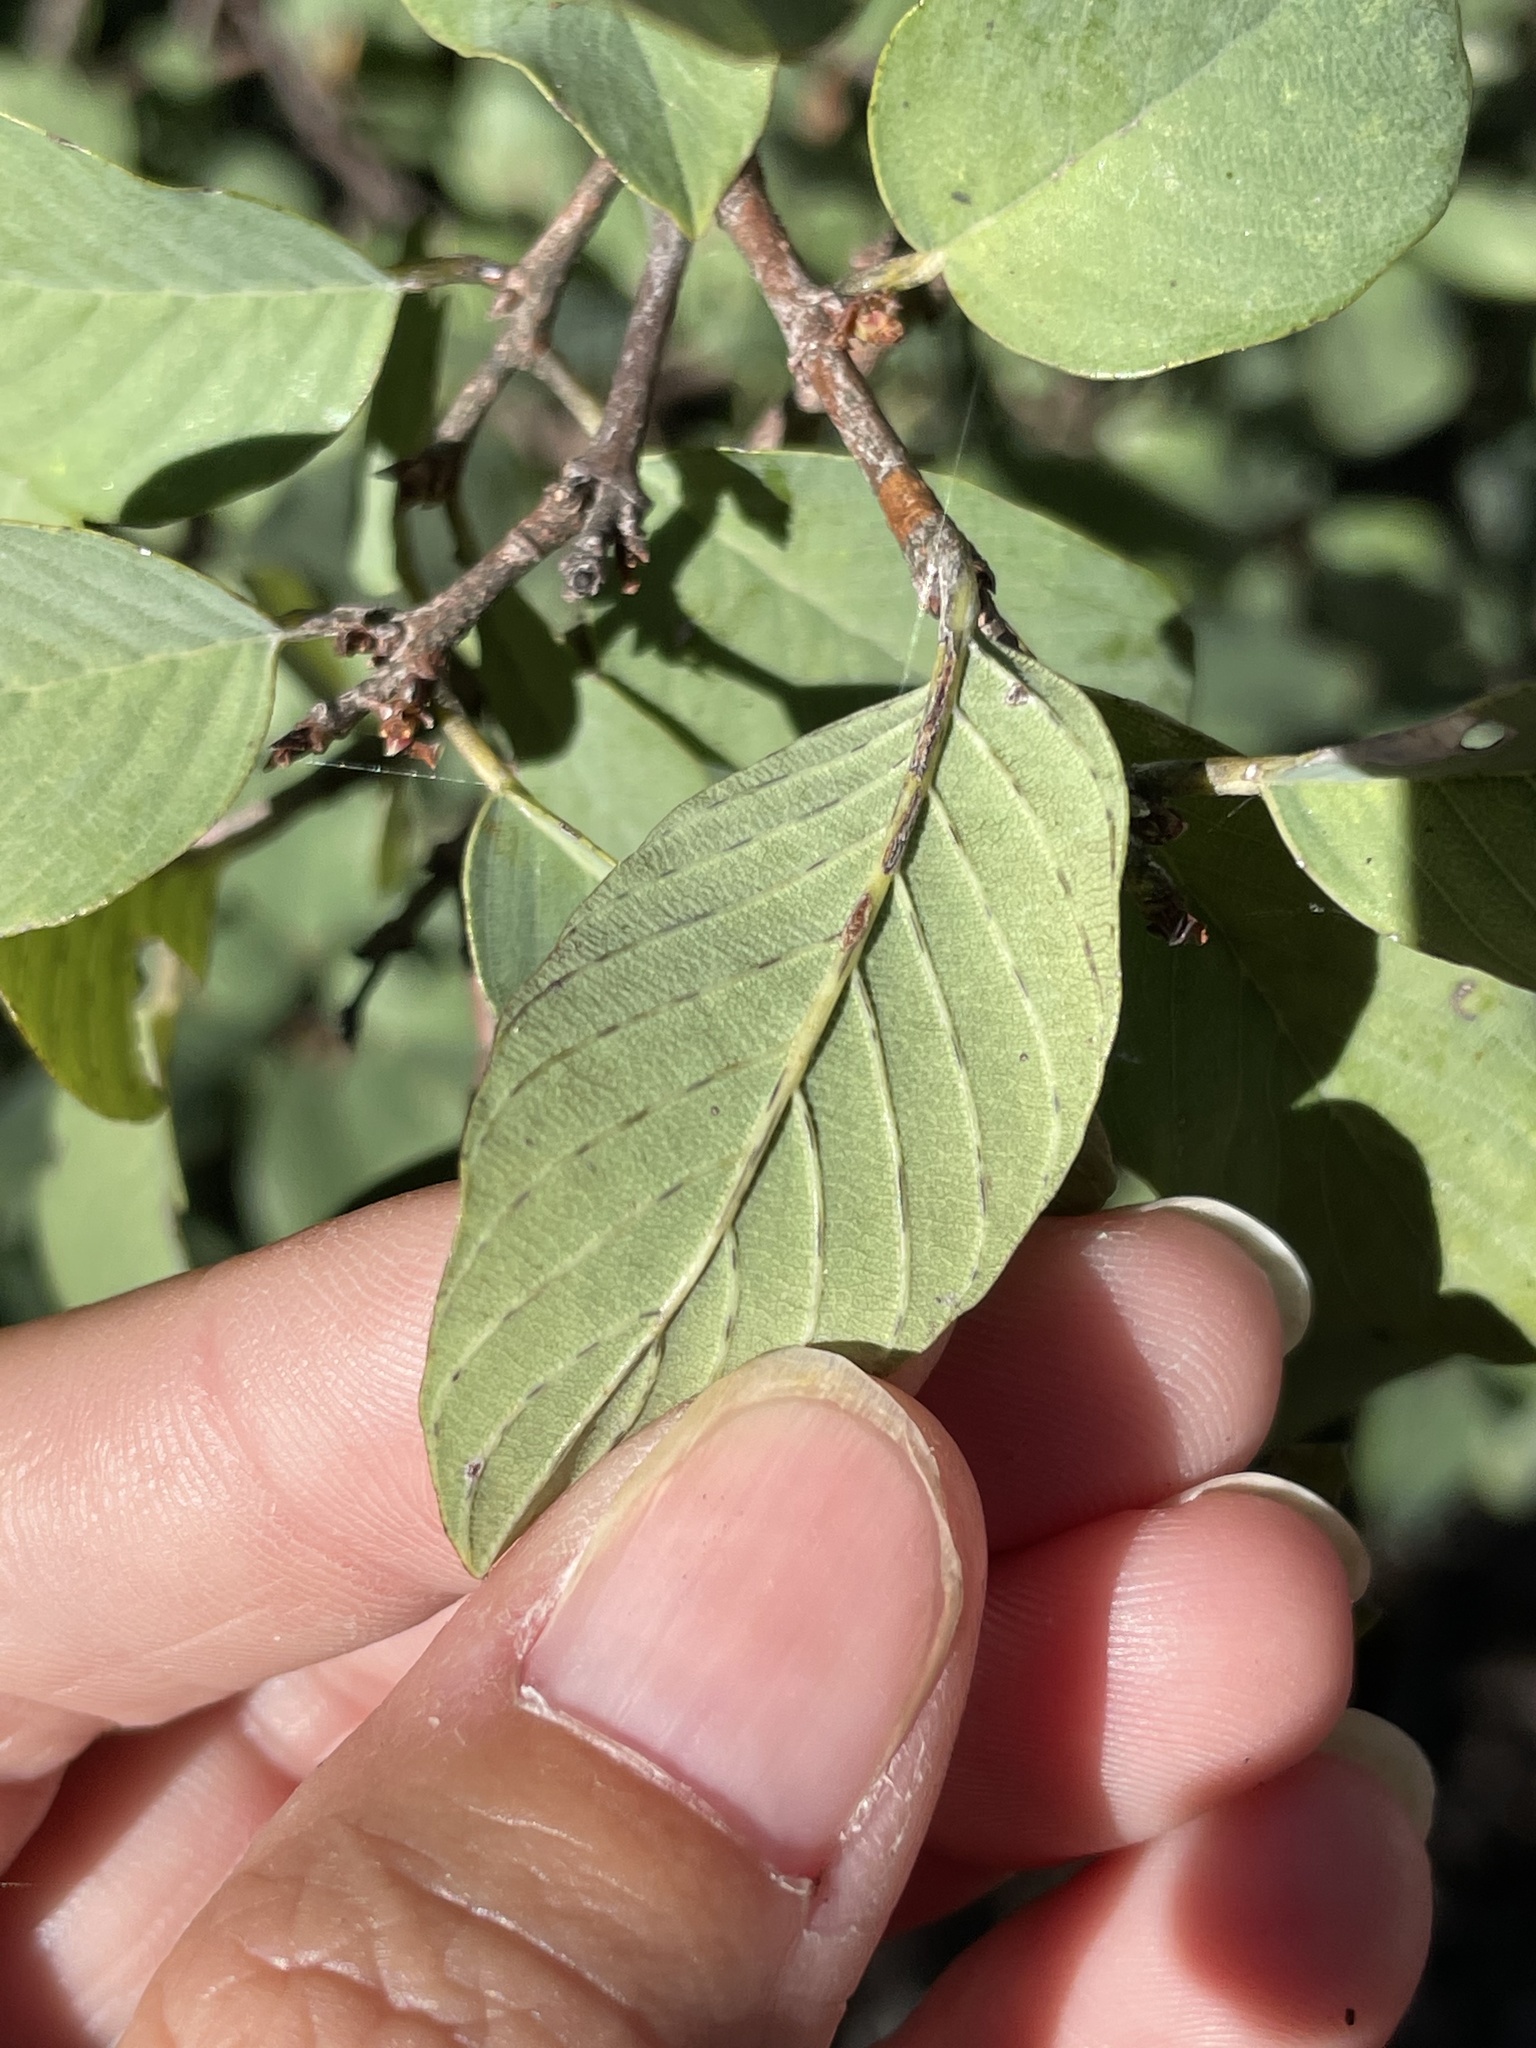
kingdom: Plantae
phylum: Tracheophyta
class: Magnoliopsida
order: Rosales
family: Rhamnaceae
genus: Karwinskia
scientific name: Karwinskia humboldtiana
